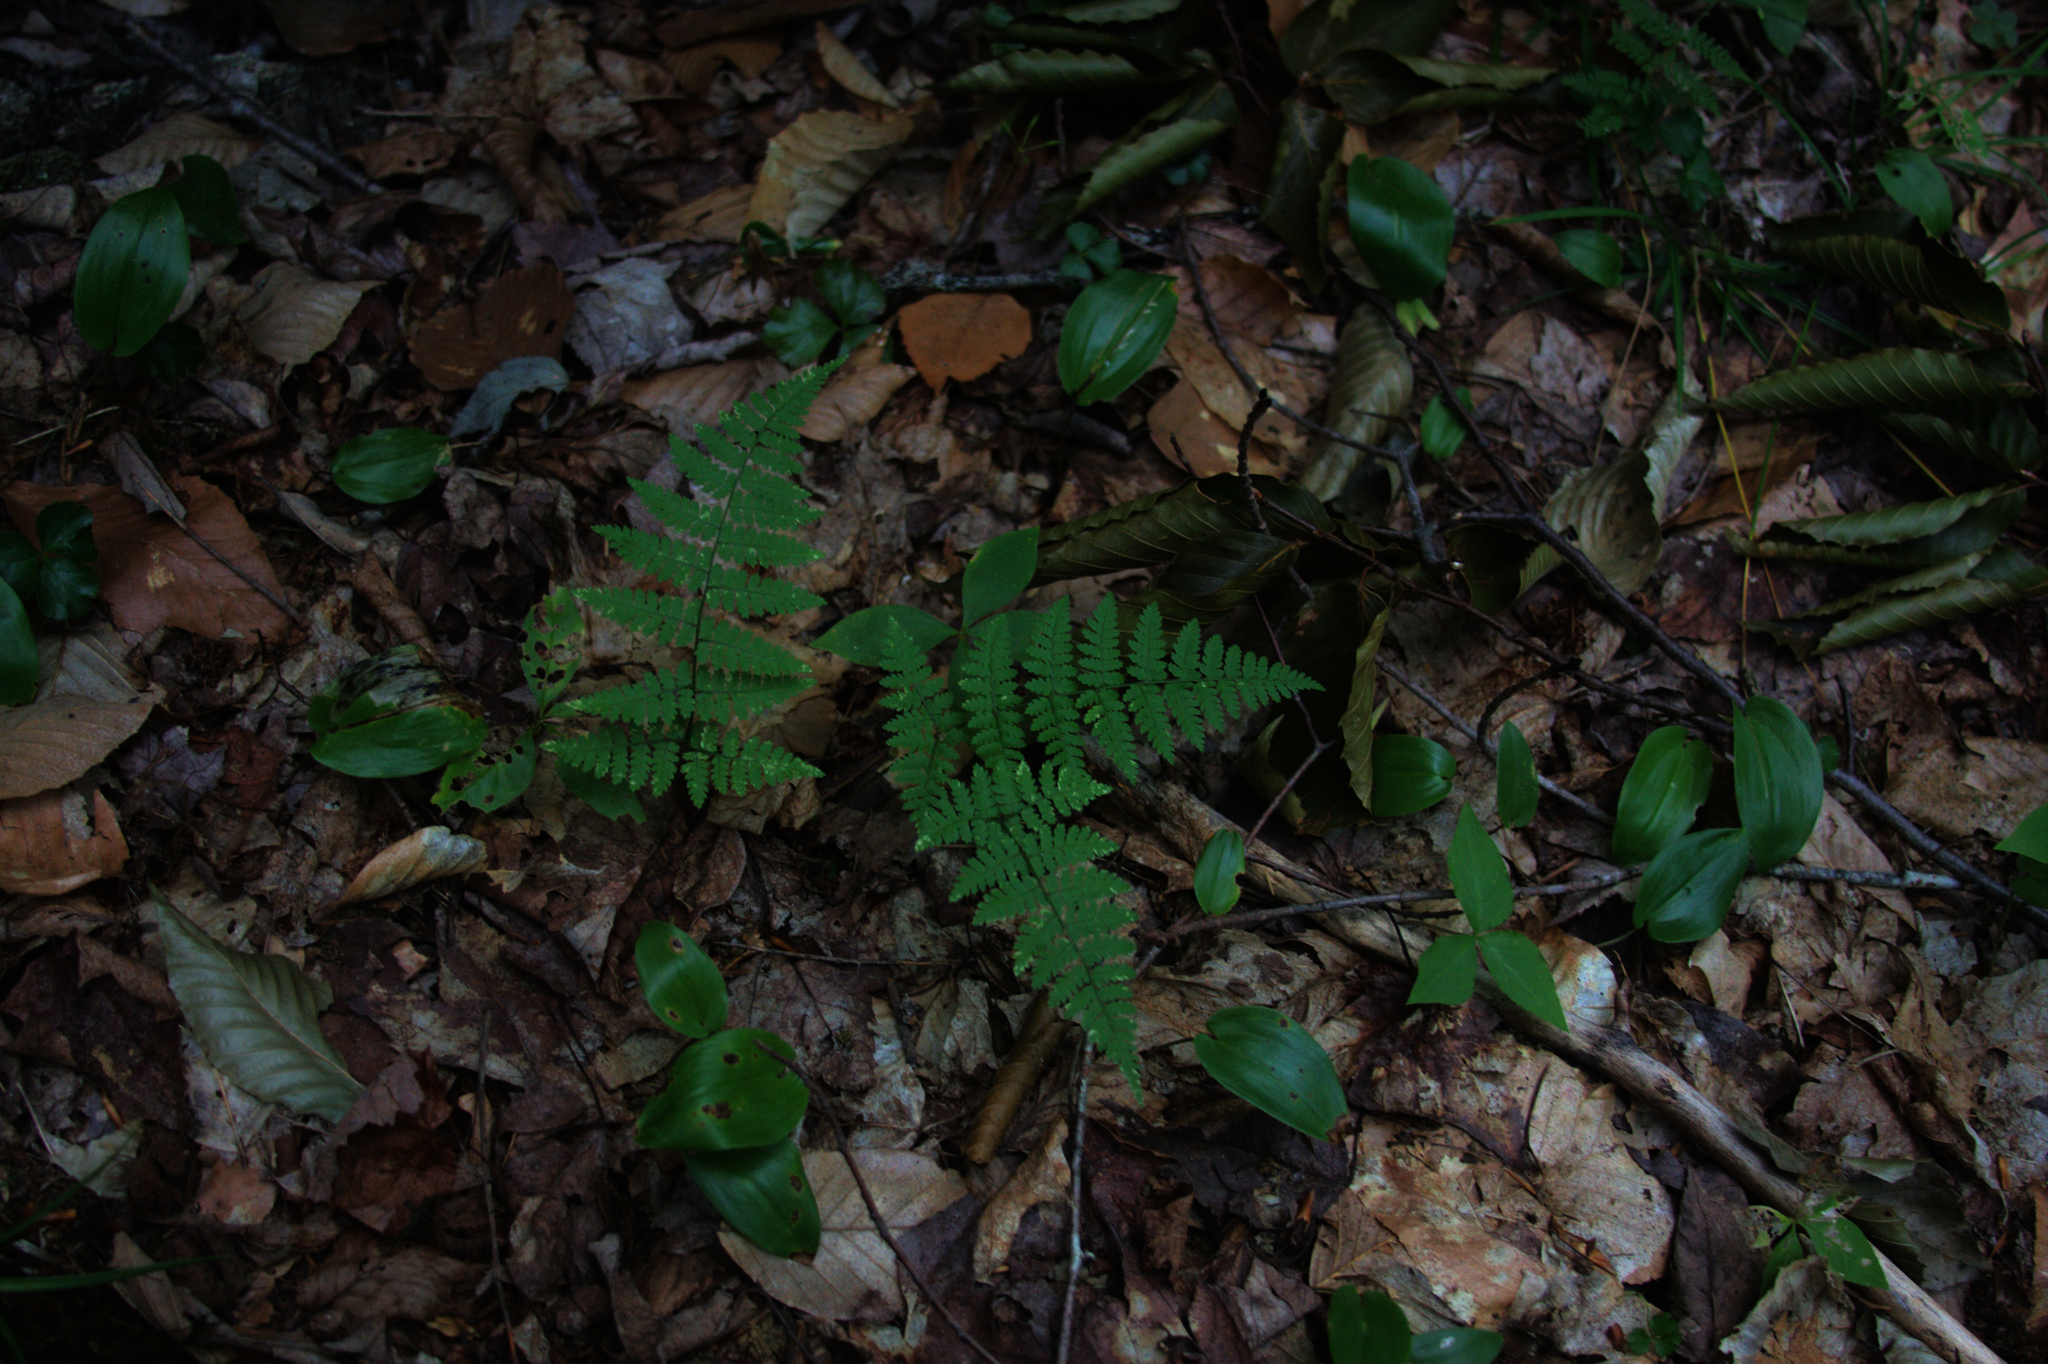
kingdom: Plantae
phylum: Tracheophyta
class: Polypodiopsida
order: Polypodiales
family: Dryopteridaceae
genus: Dryopteris
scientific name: Dryopteris intermedia
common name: Evergreen wood fern
